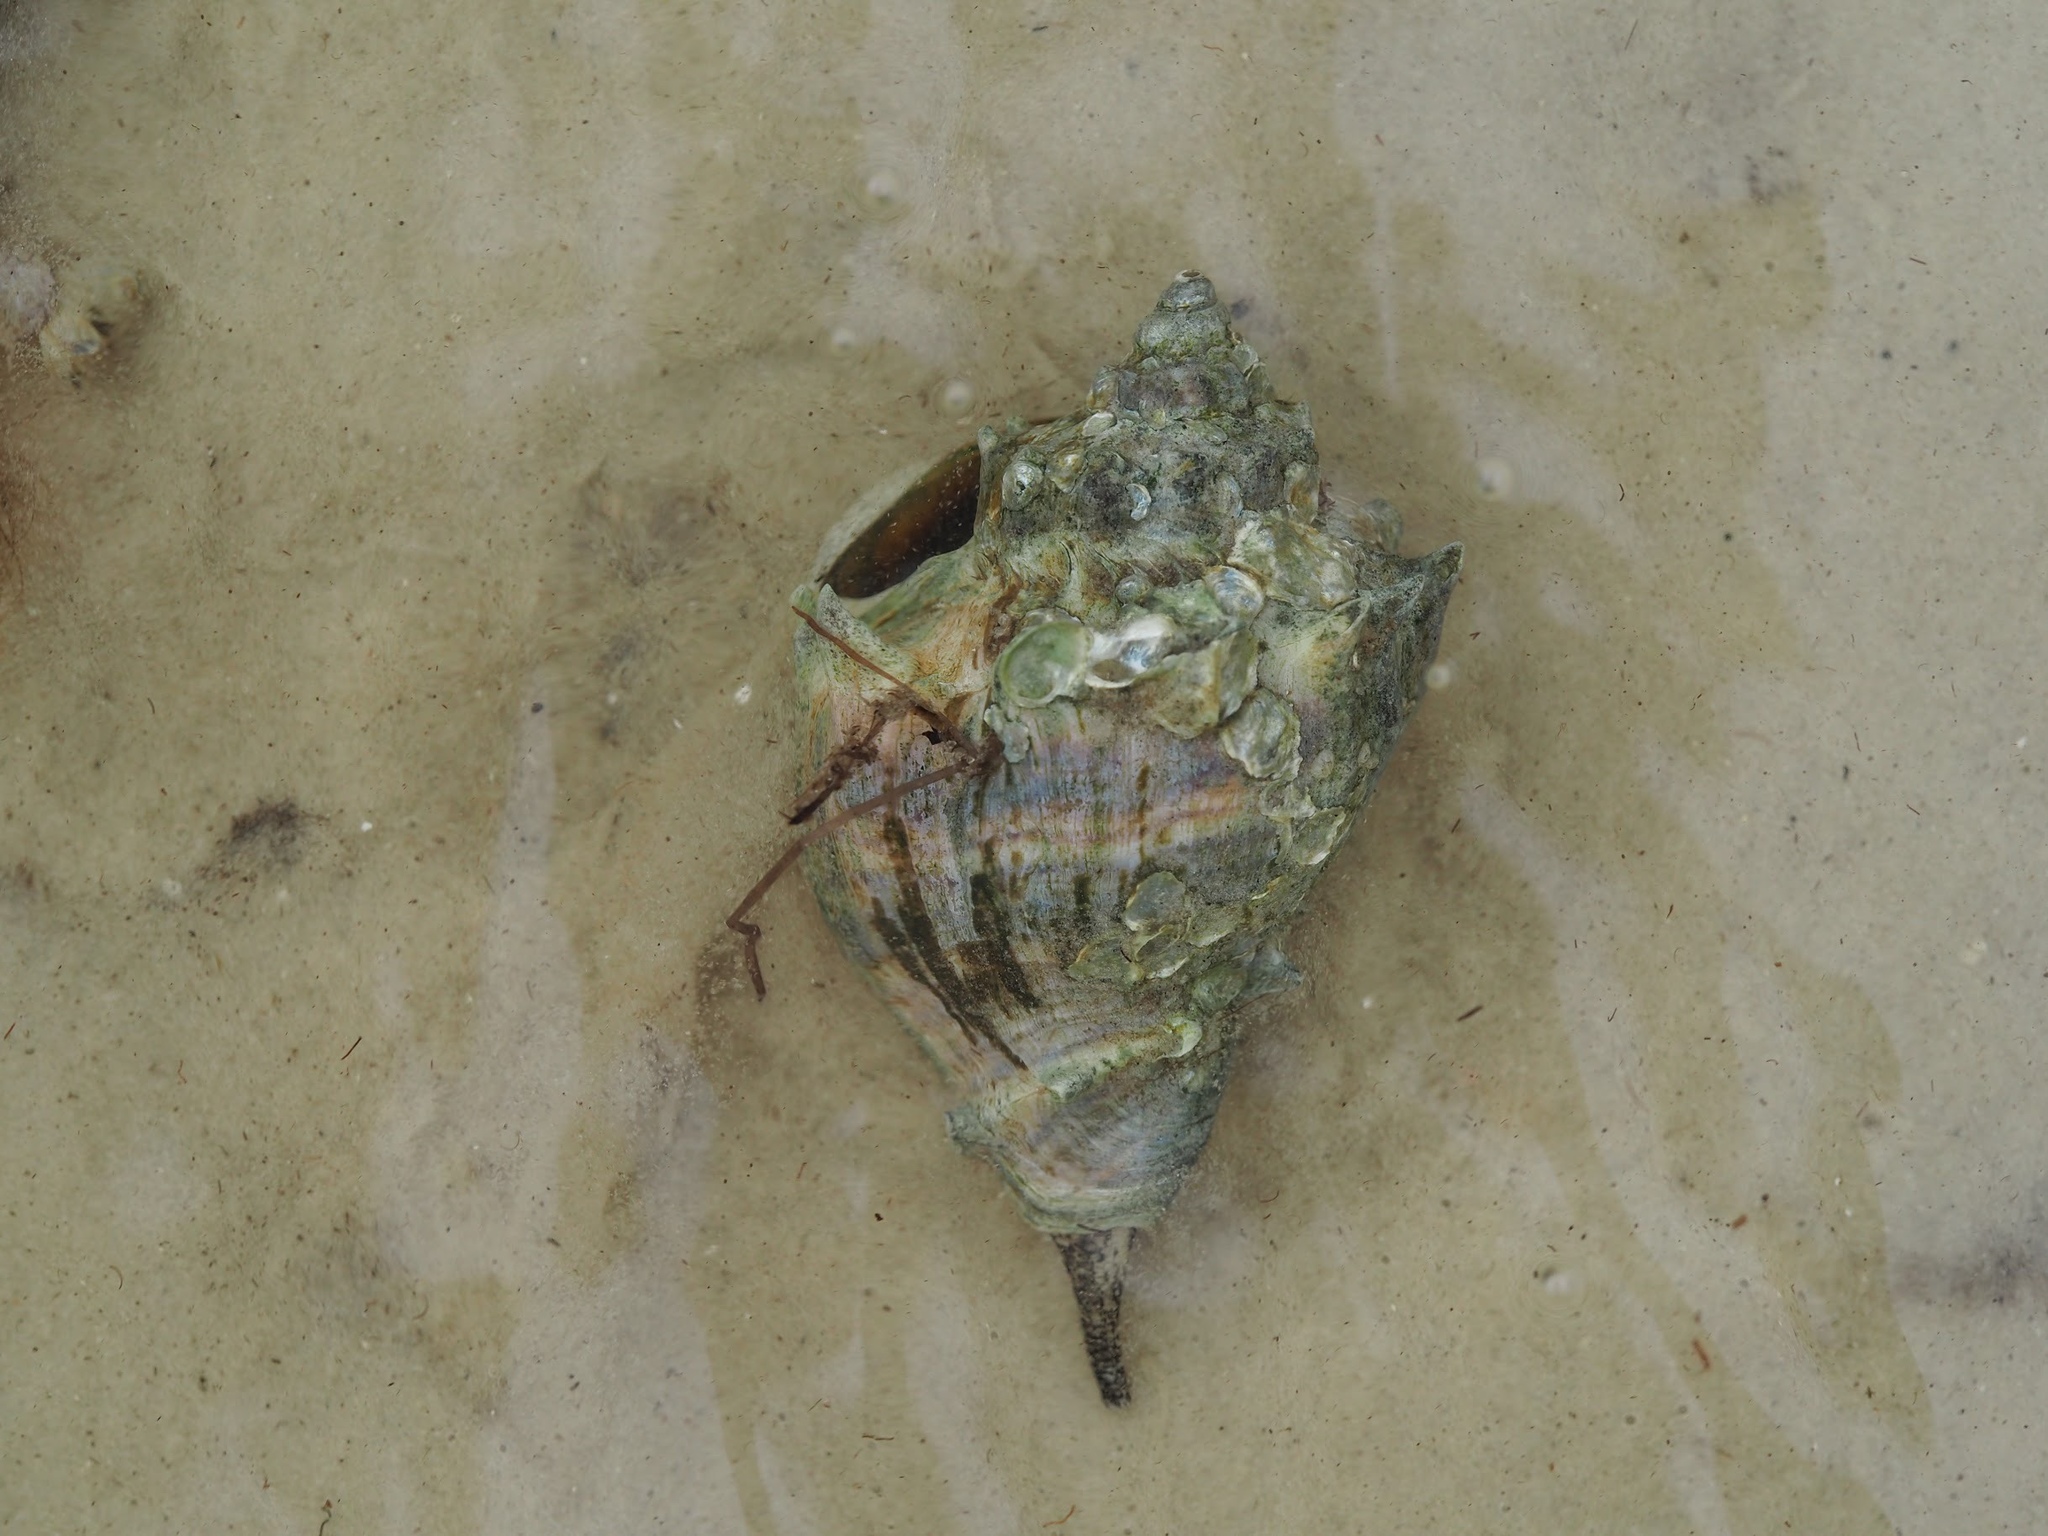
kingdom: Animalia
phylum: Mollusca
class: Gastropoda
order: Neogastropoda
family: Melongenidae
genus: Melongena
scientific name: Melongena corona
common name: American crown conch
